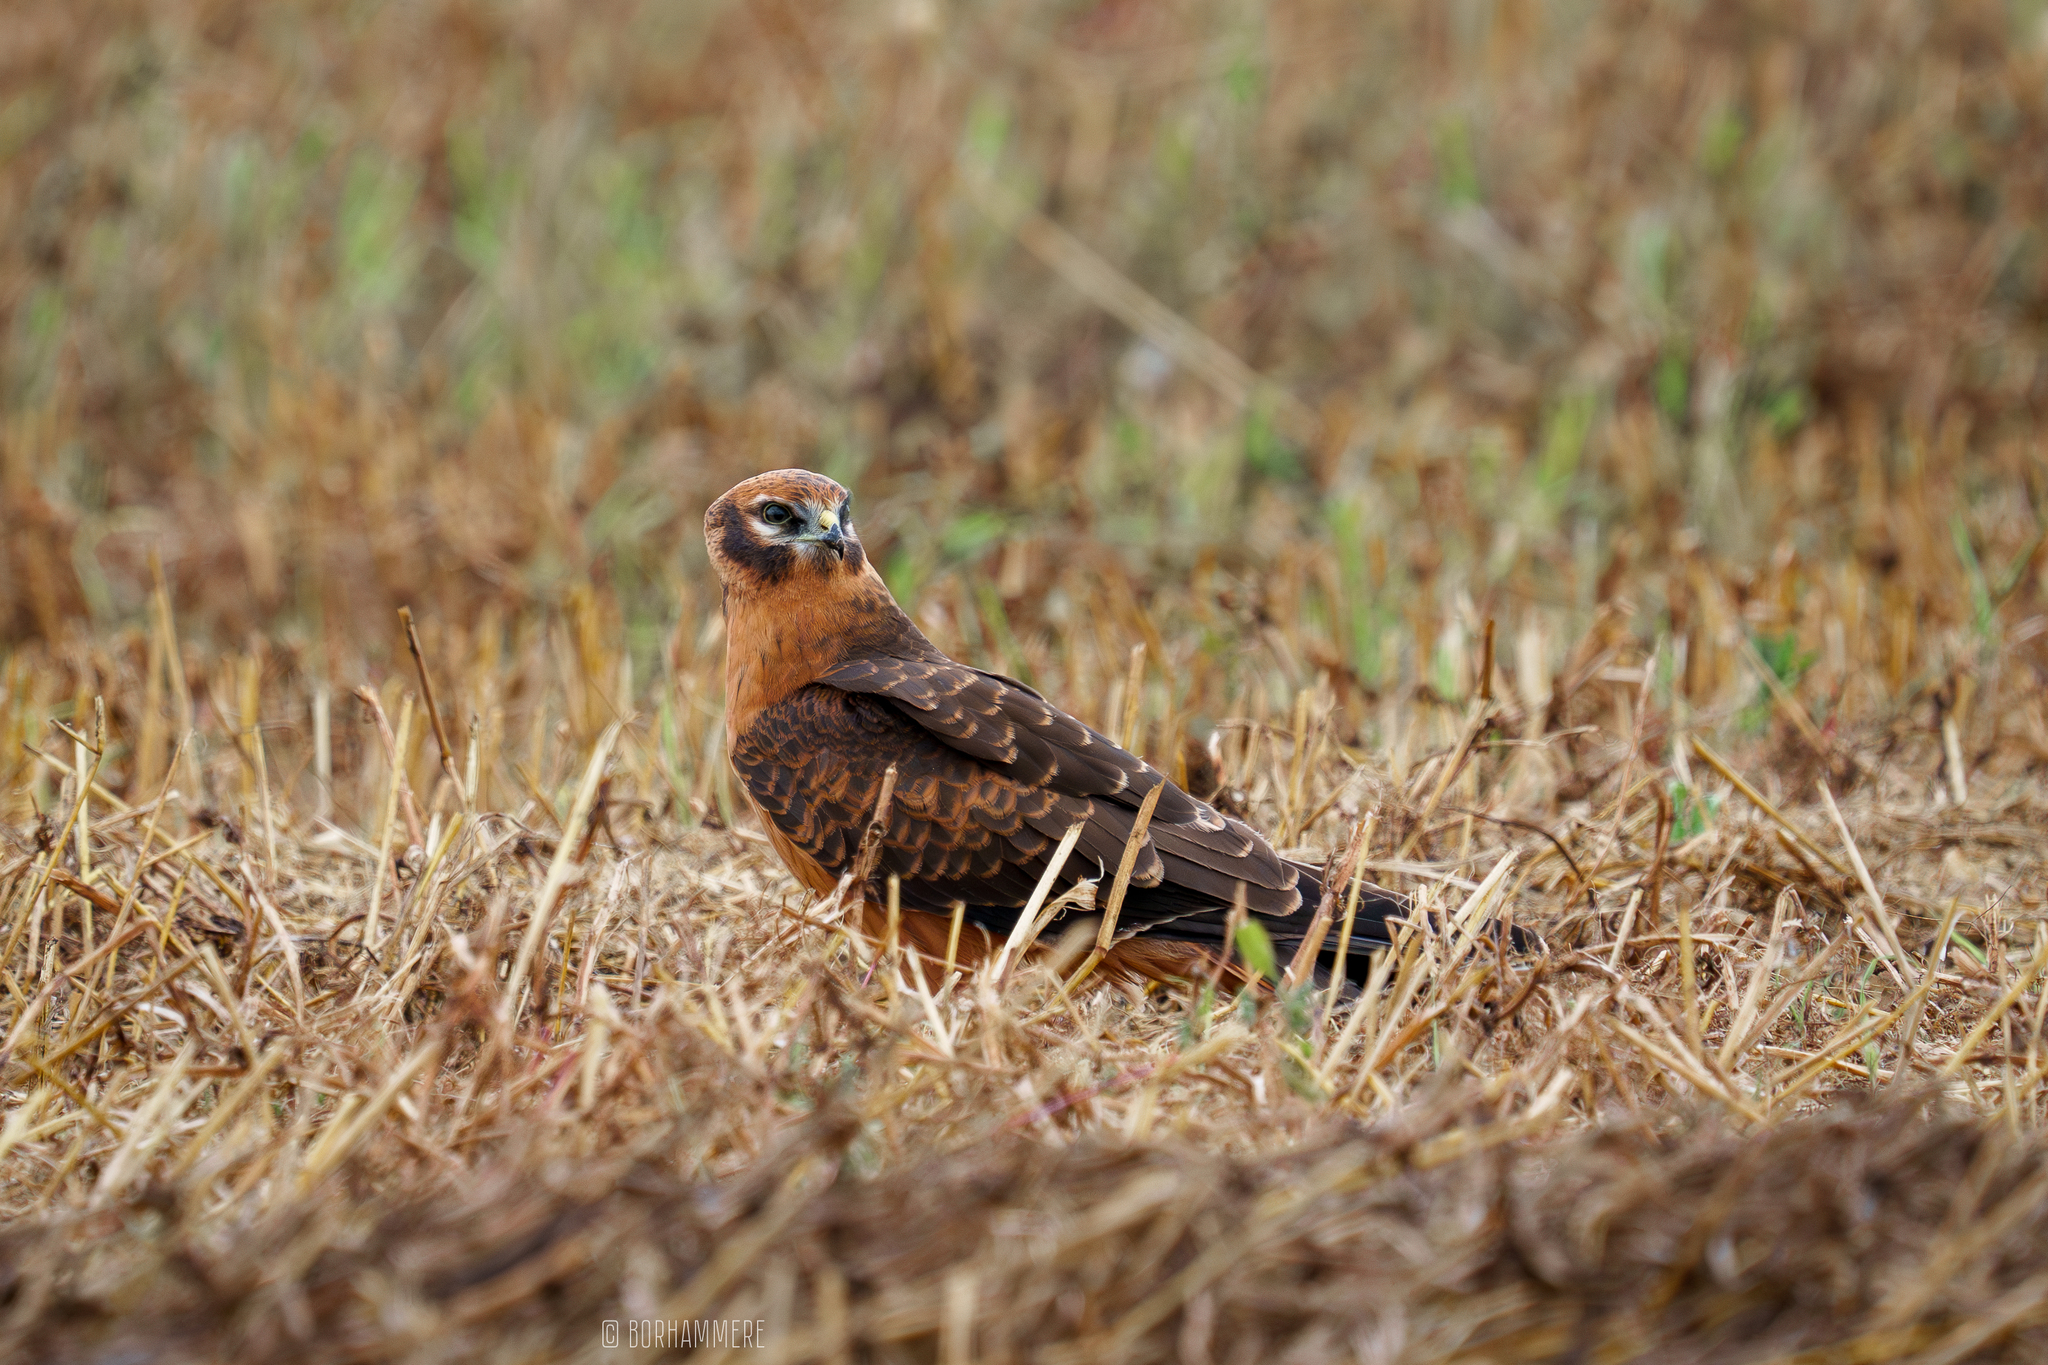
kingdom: Animalia
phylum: Chordata
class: Aves
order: Accipitriformes
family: Accipitridae
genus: Circus
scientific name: Circus pygargus
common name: Montagu's harrier
